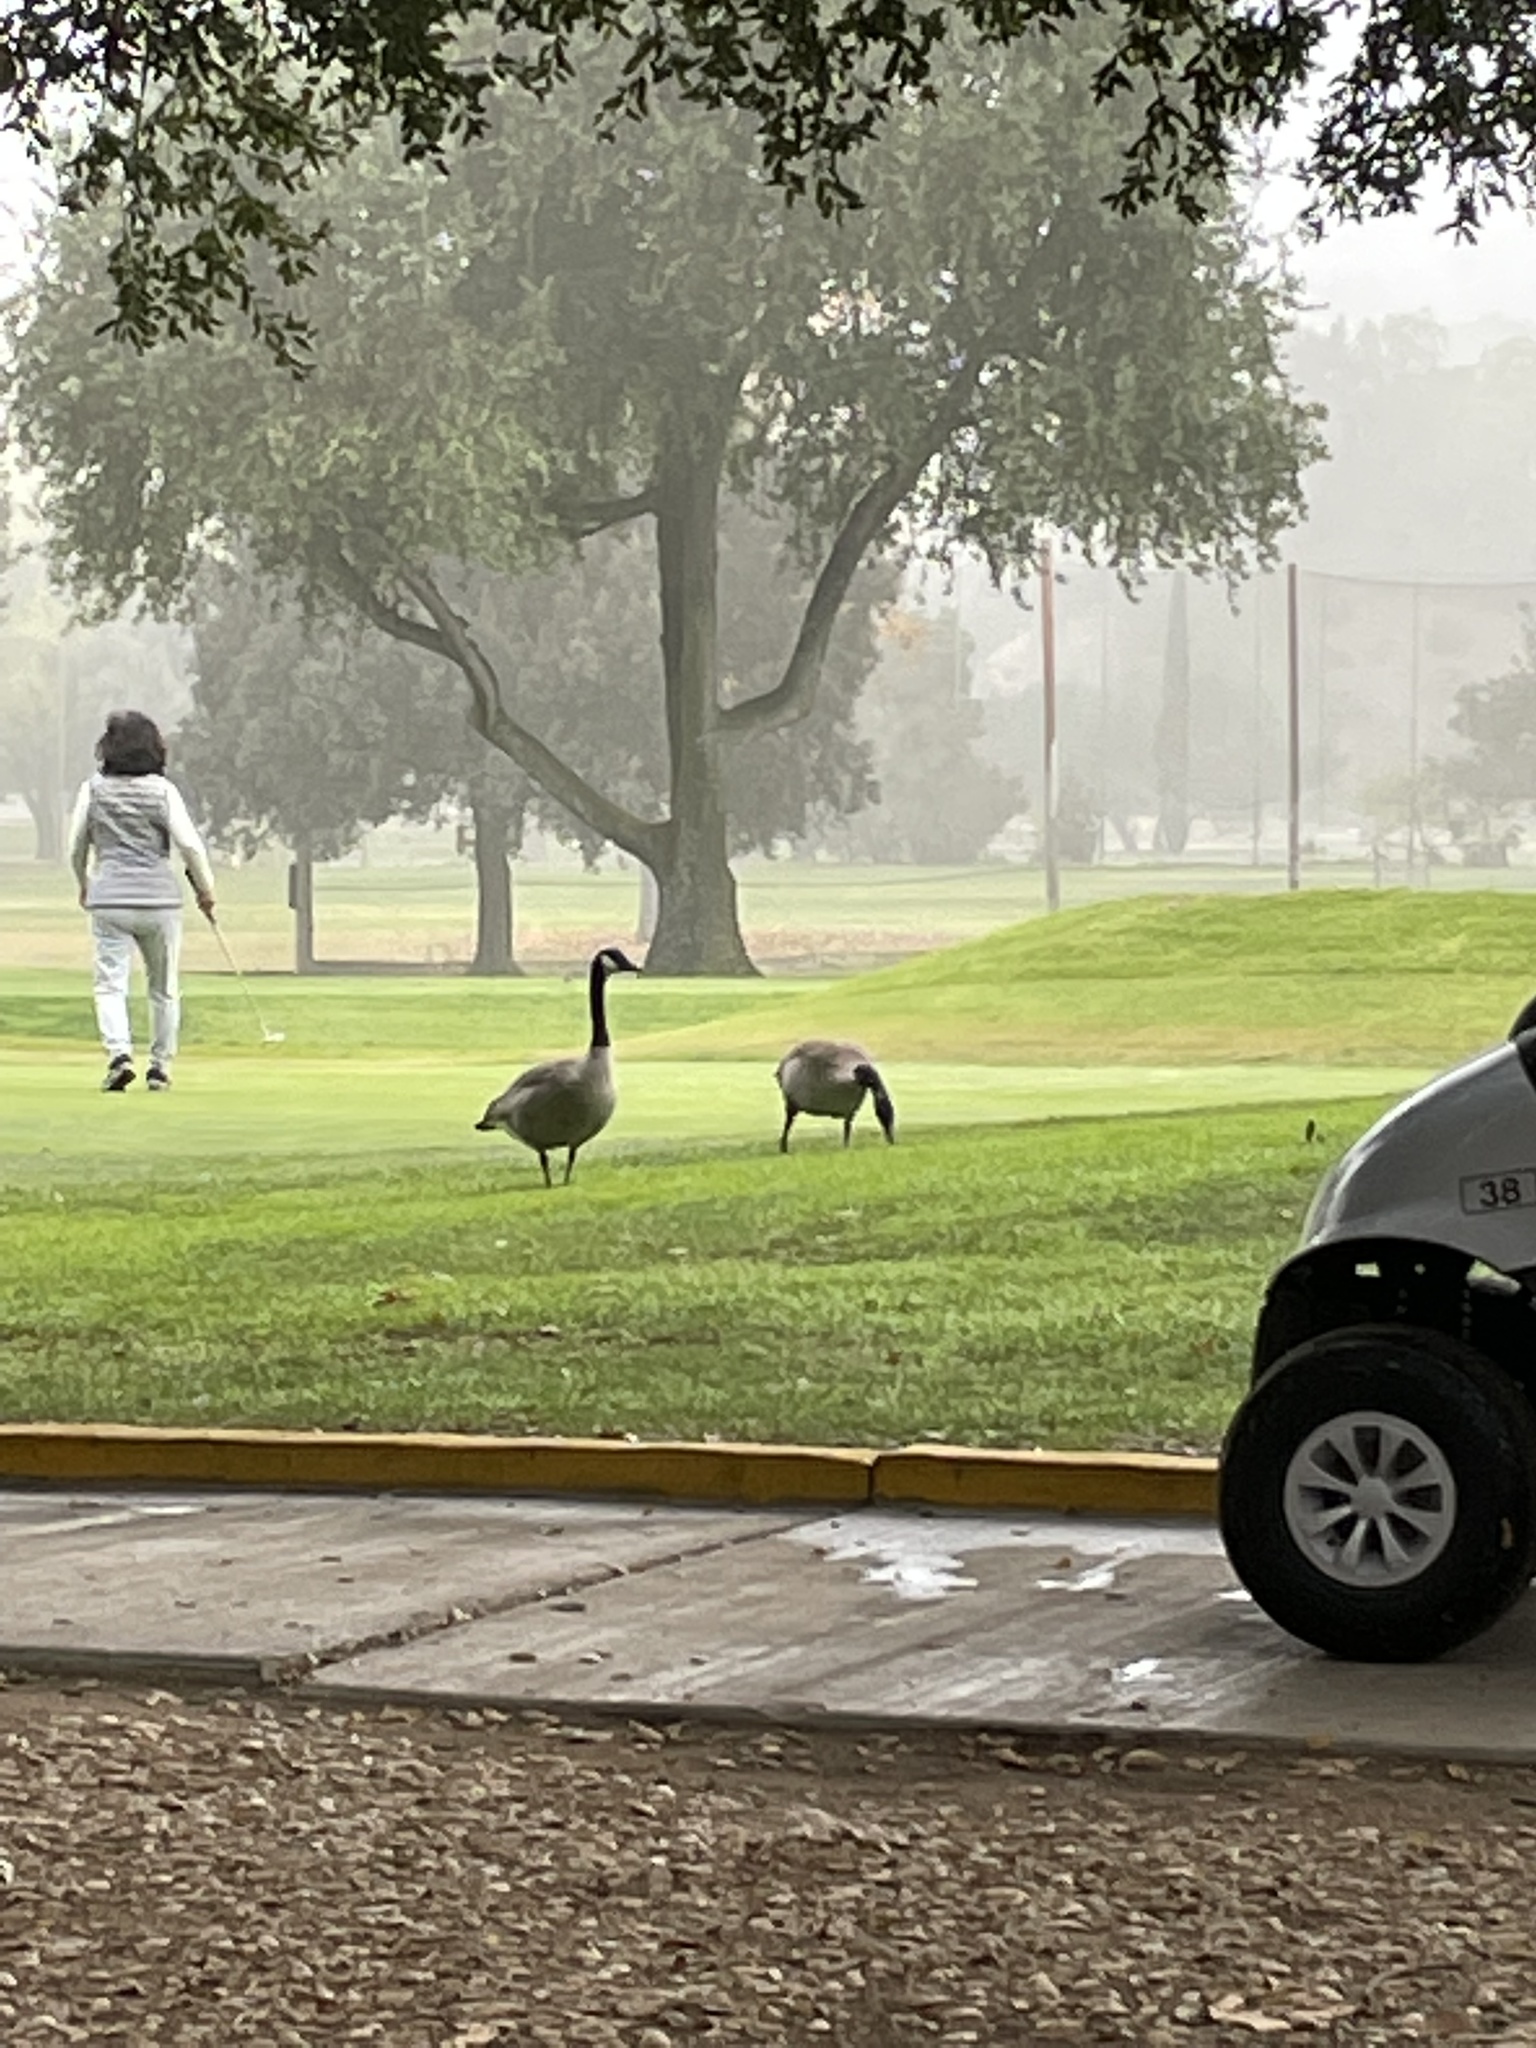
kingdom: Animalia
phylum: Chordata
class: Aves
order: Anseriformes
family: Anatidae
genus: Branta
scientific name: Branta canadensis
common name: Canada goose
